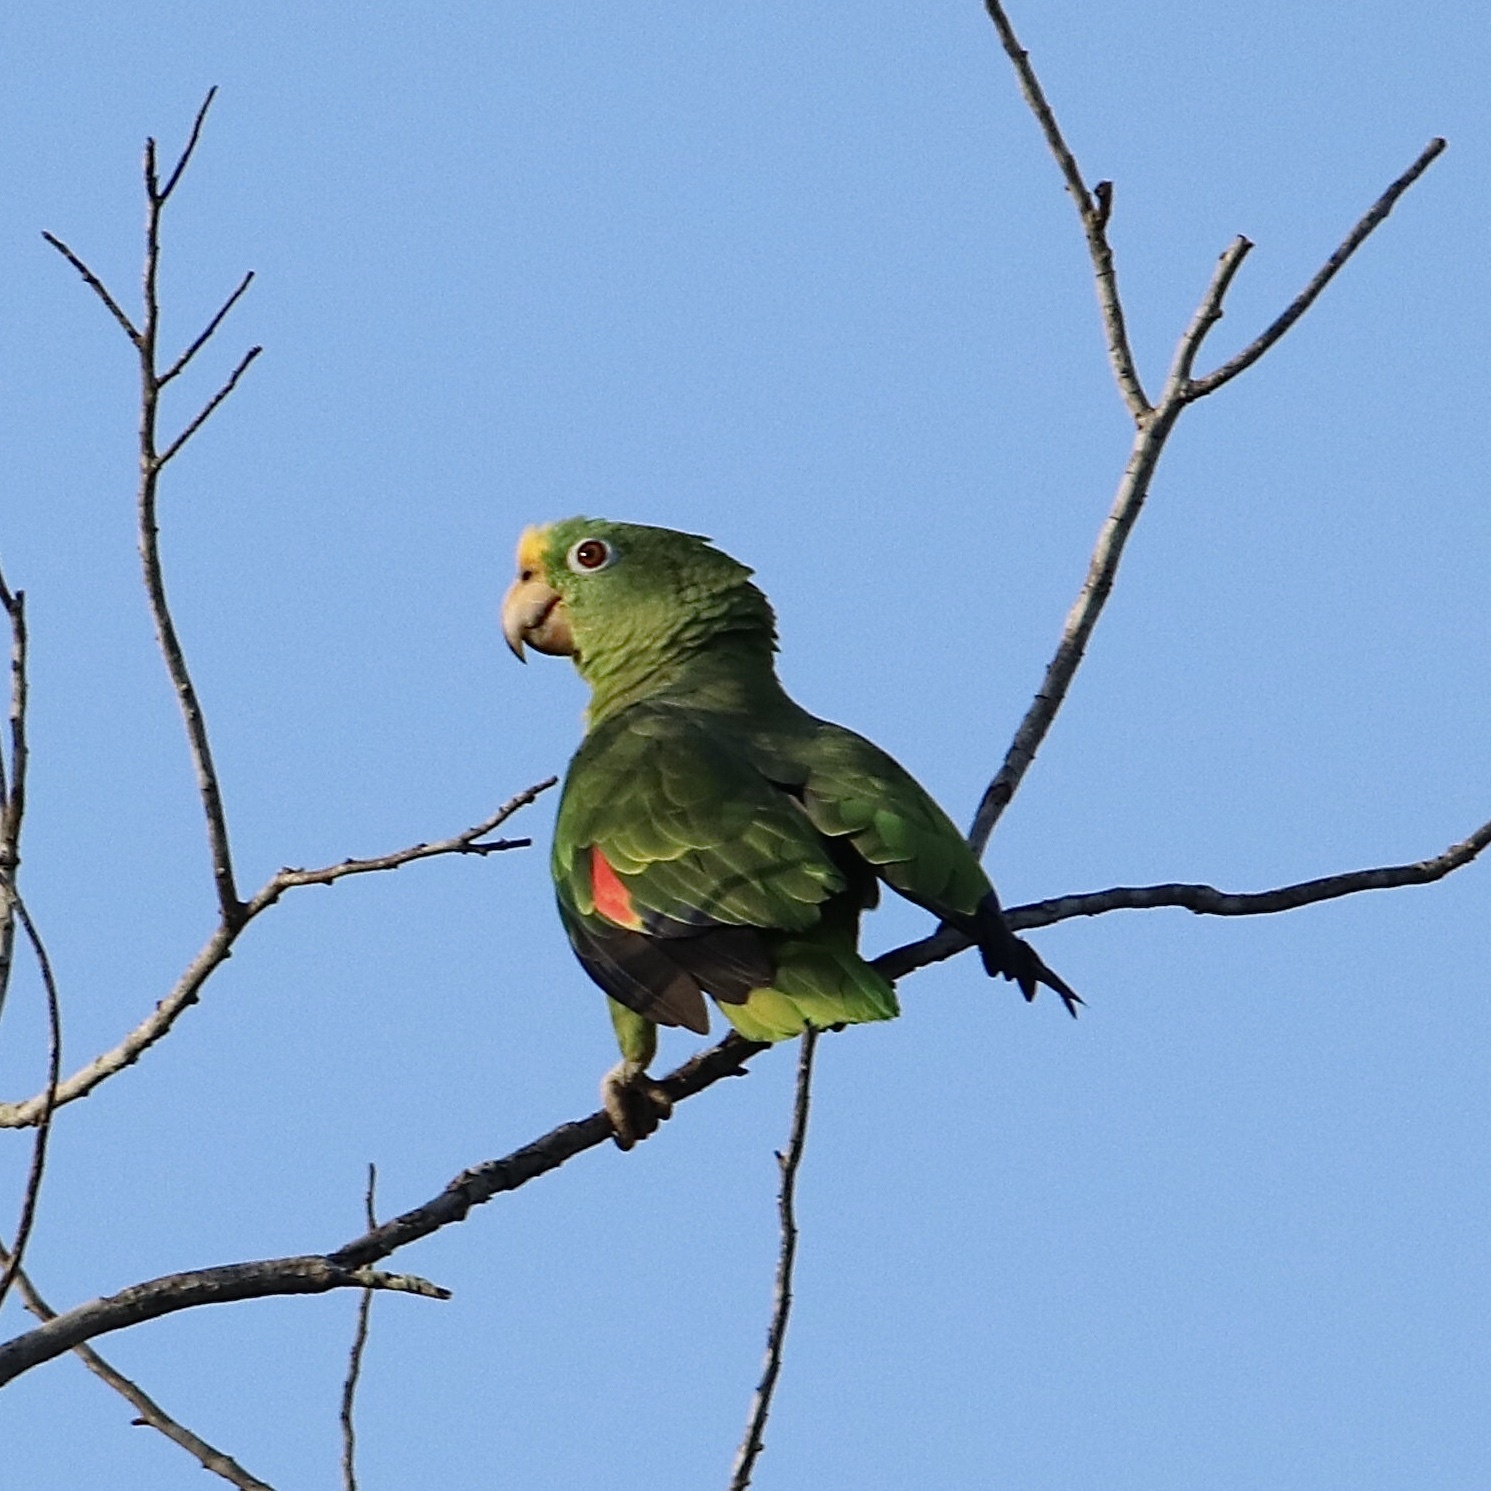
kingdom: Animalia
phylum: Chordata
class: Aves
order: Psittaciformes
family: Psittacidae
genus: Amazona
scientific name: Amazona ochrocephala
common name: Yellow-crowned amazon
